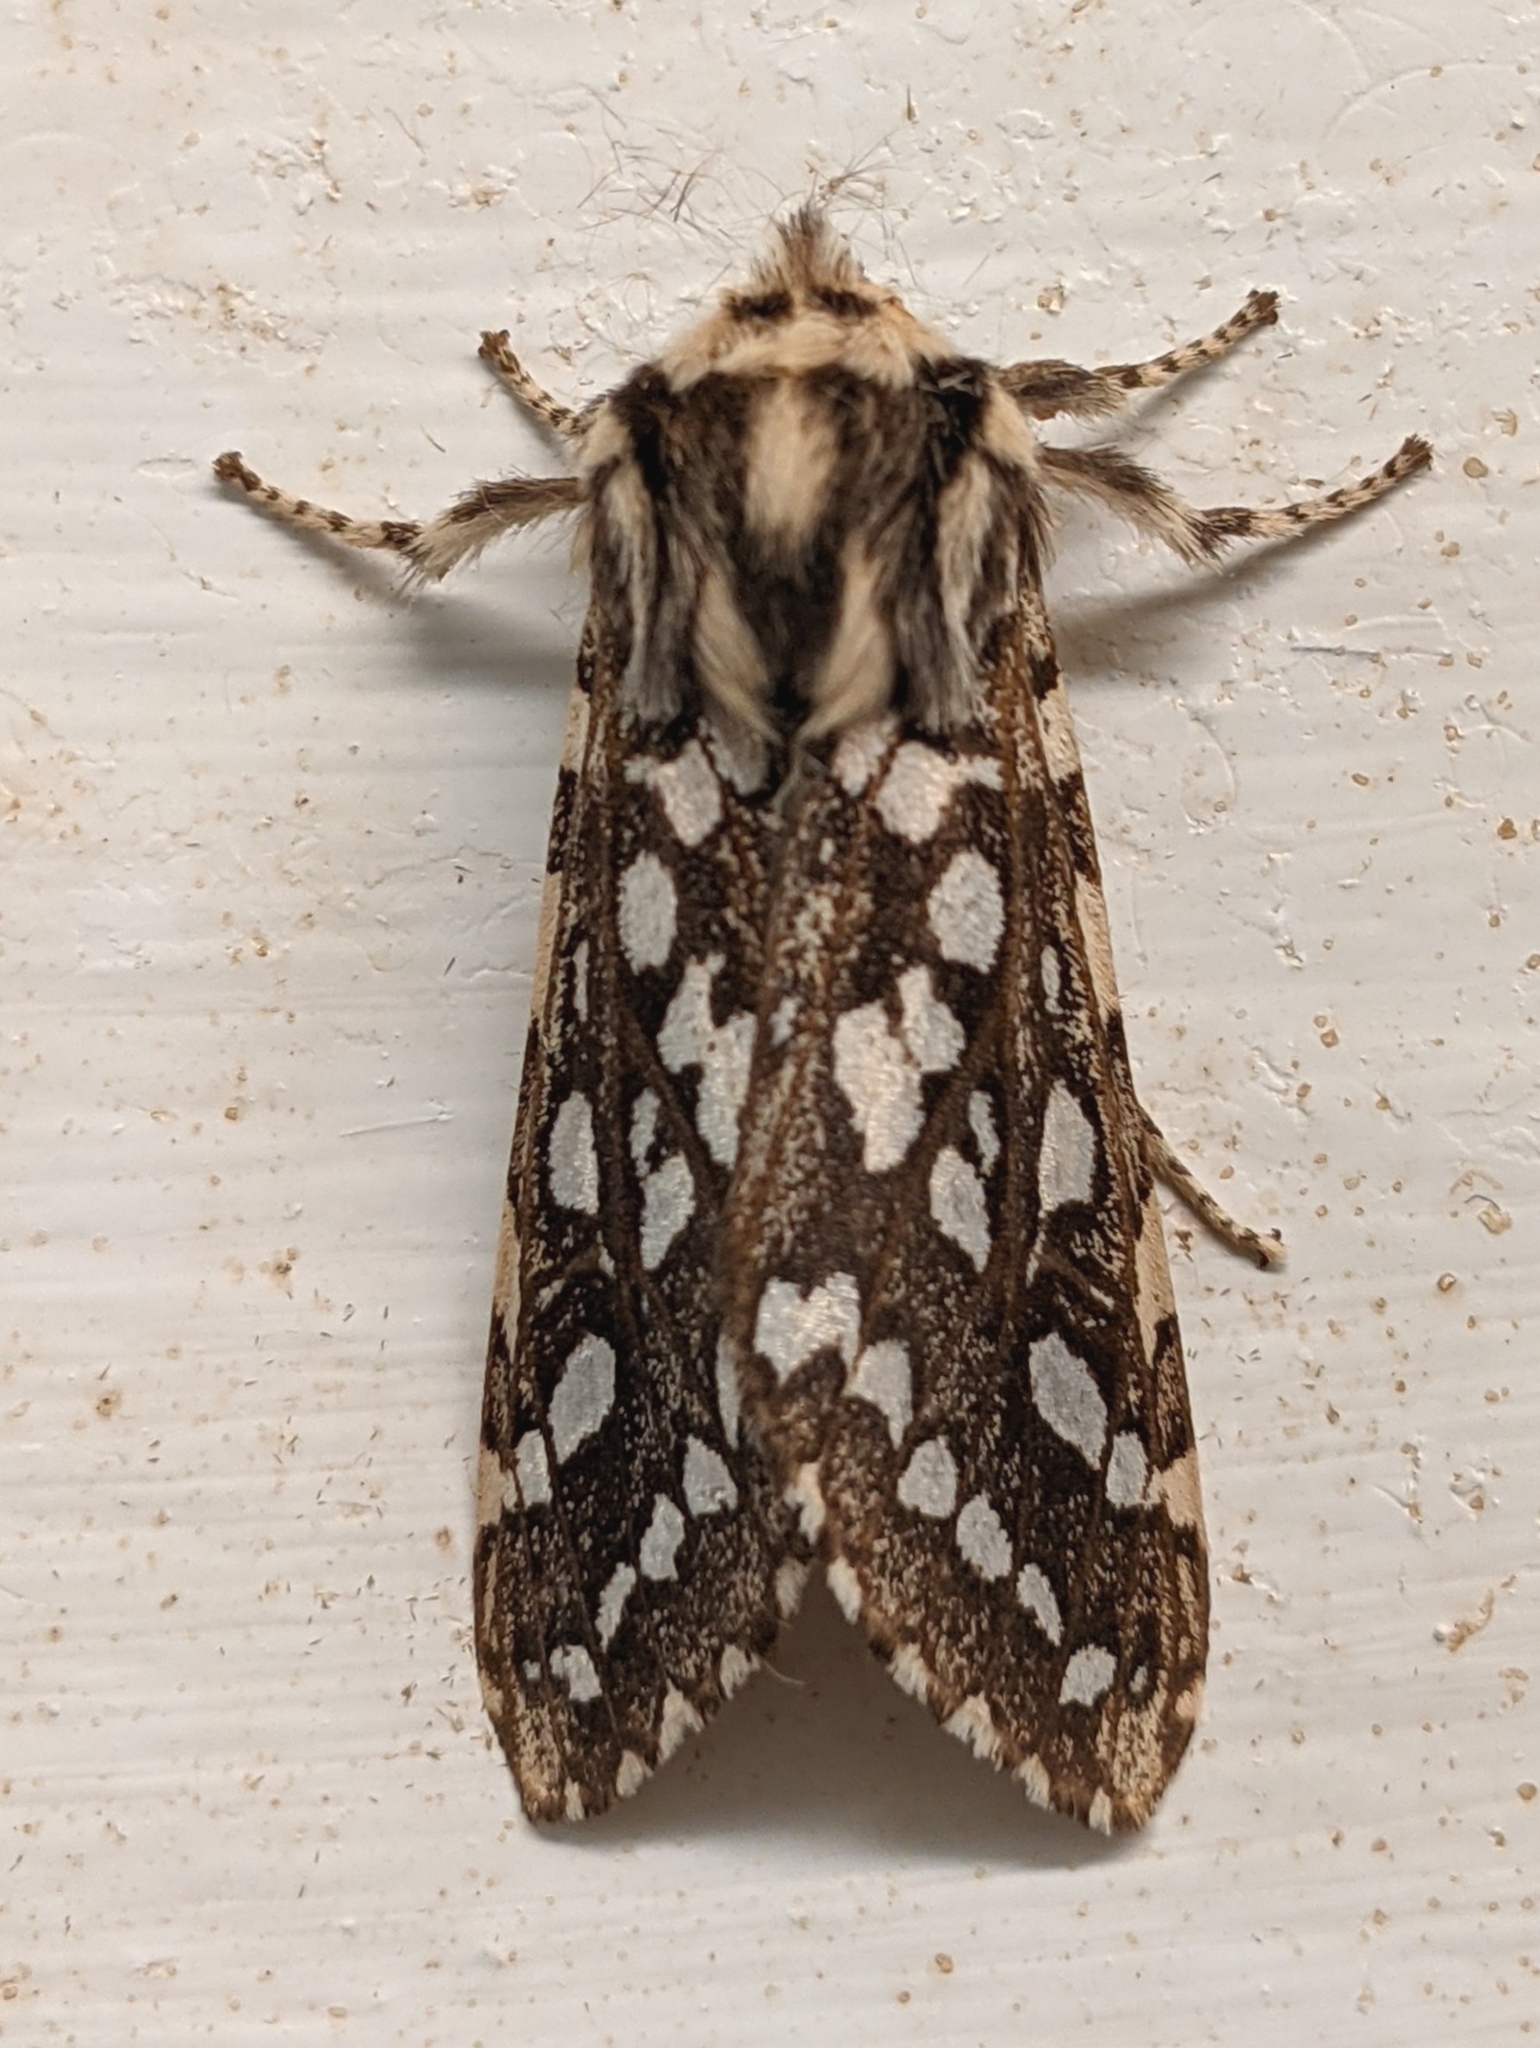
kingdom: Animalia
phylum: Arthropoda
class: Insecta
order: Lepidoptera
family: Erebidae
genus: Lophocampa
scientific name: Lophocampa argentata
